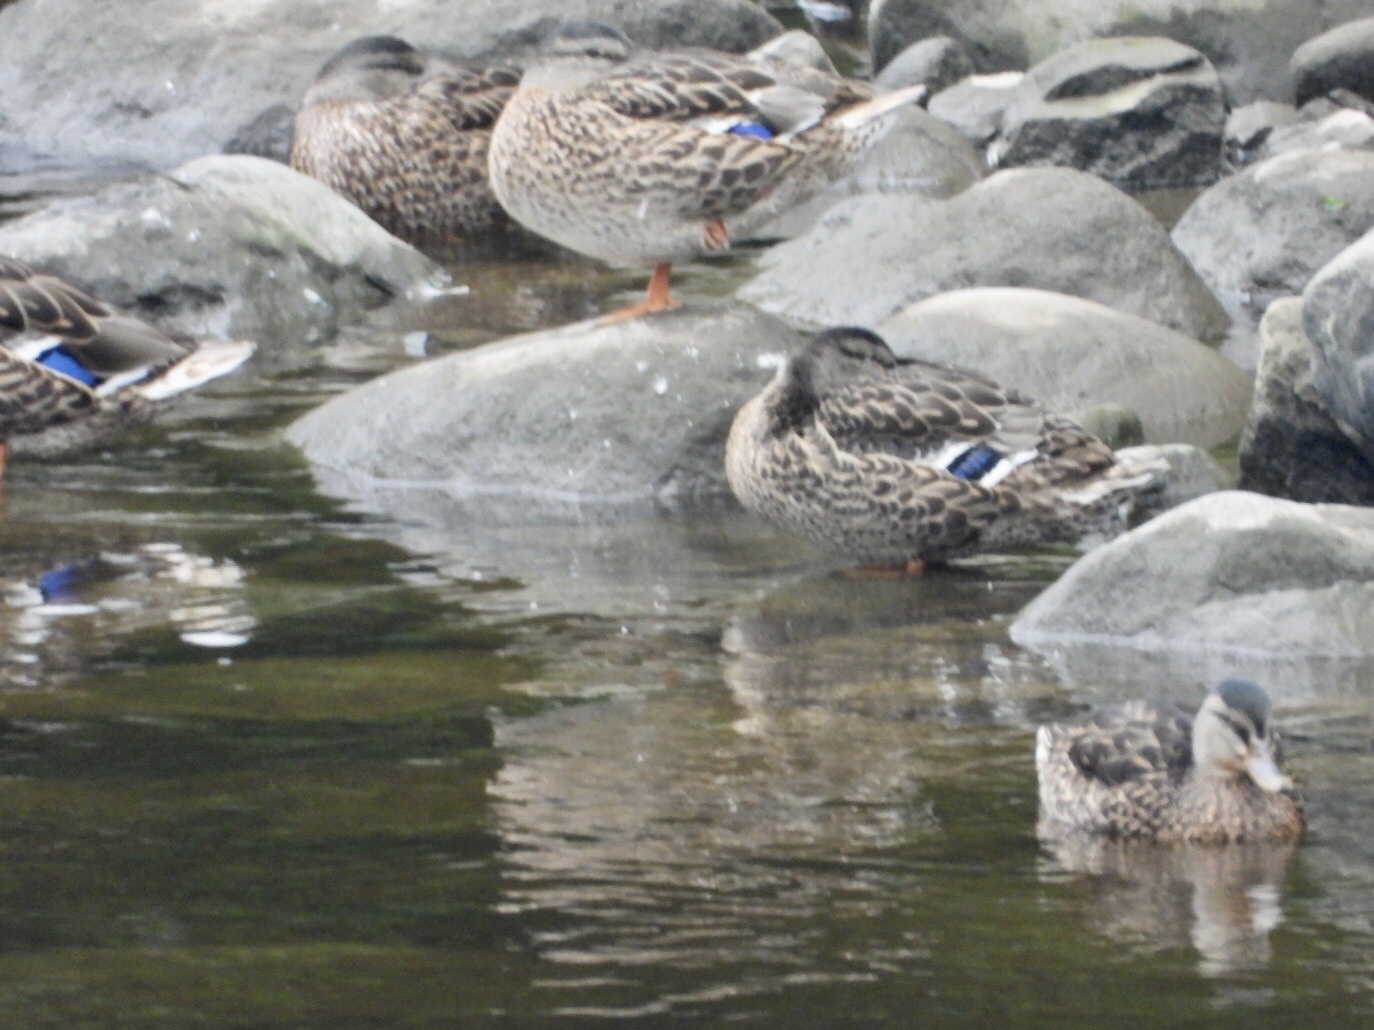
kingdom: Animalia
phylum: Chordata
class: Aves
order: Anseriformes
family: Anatidae
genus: Anas
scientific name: Anas platyrhynchos
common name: Mallard
